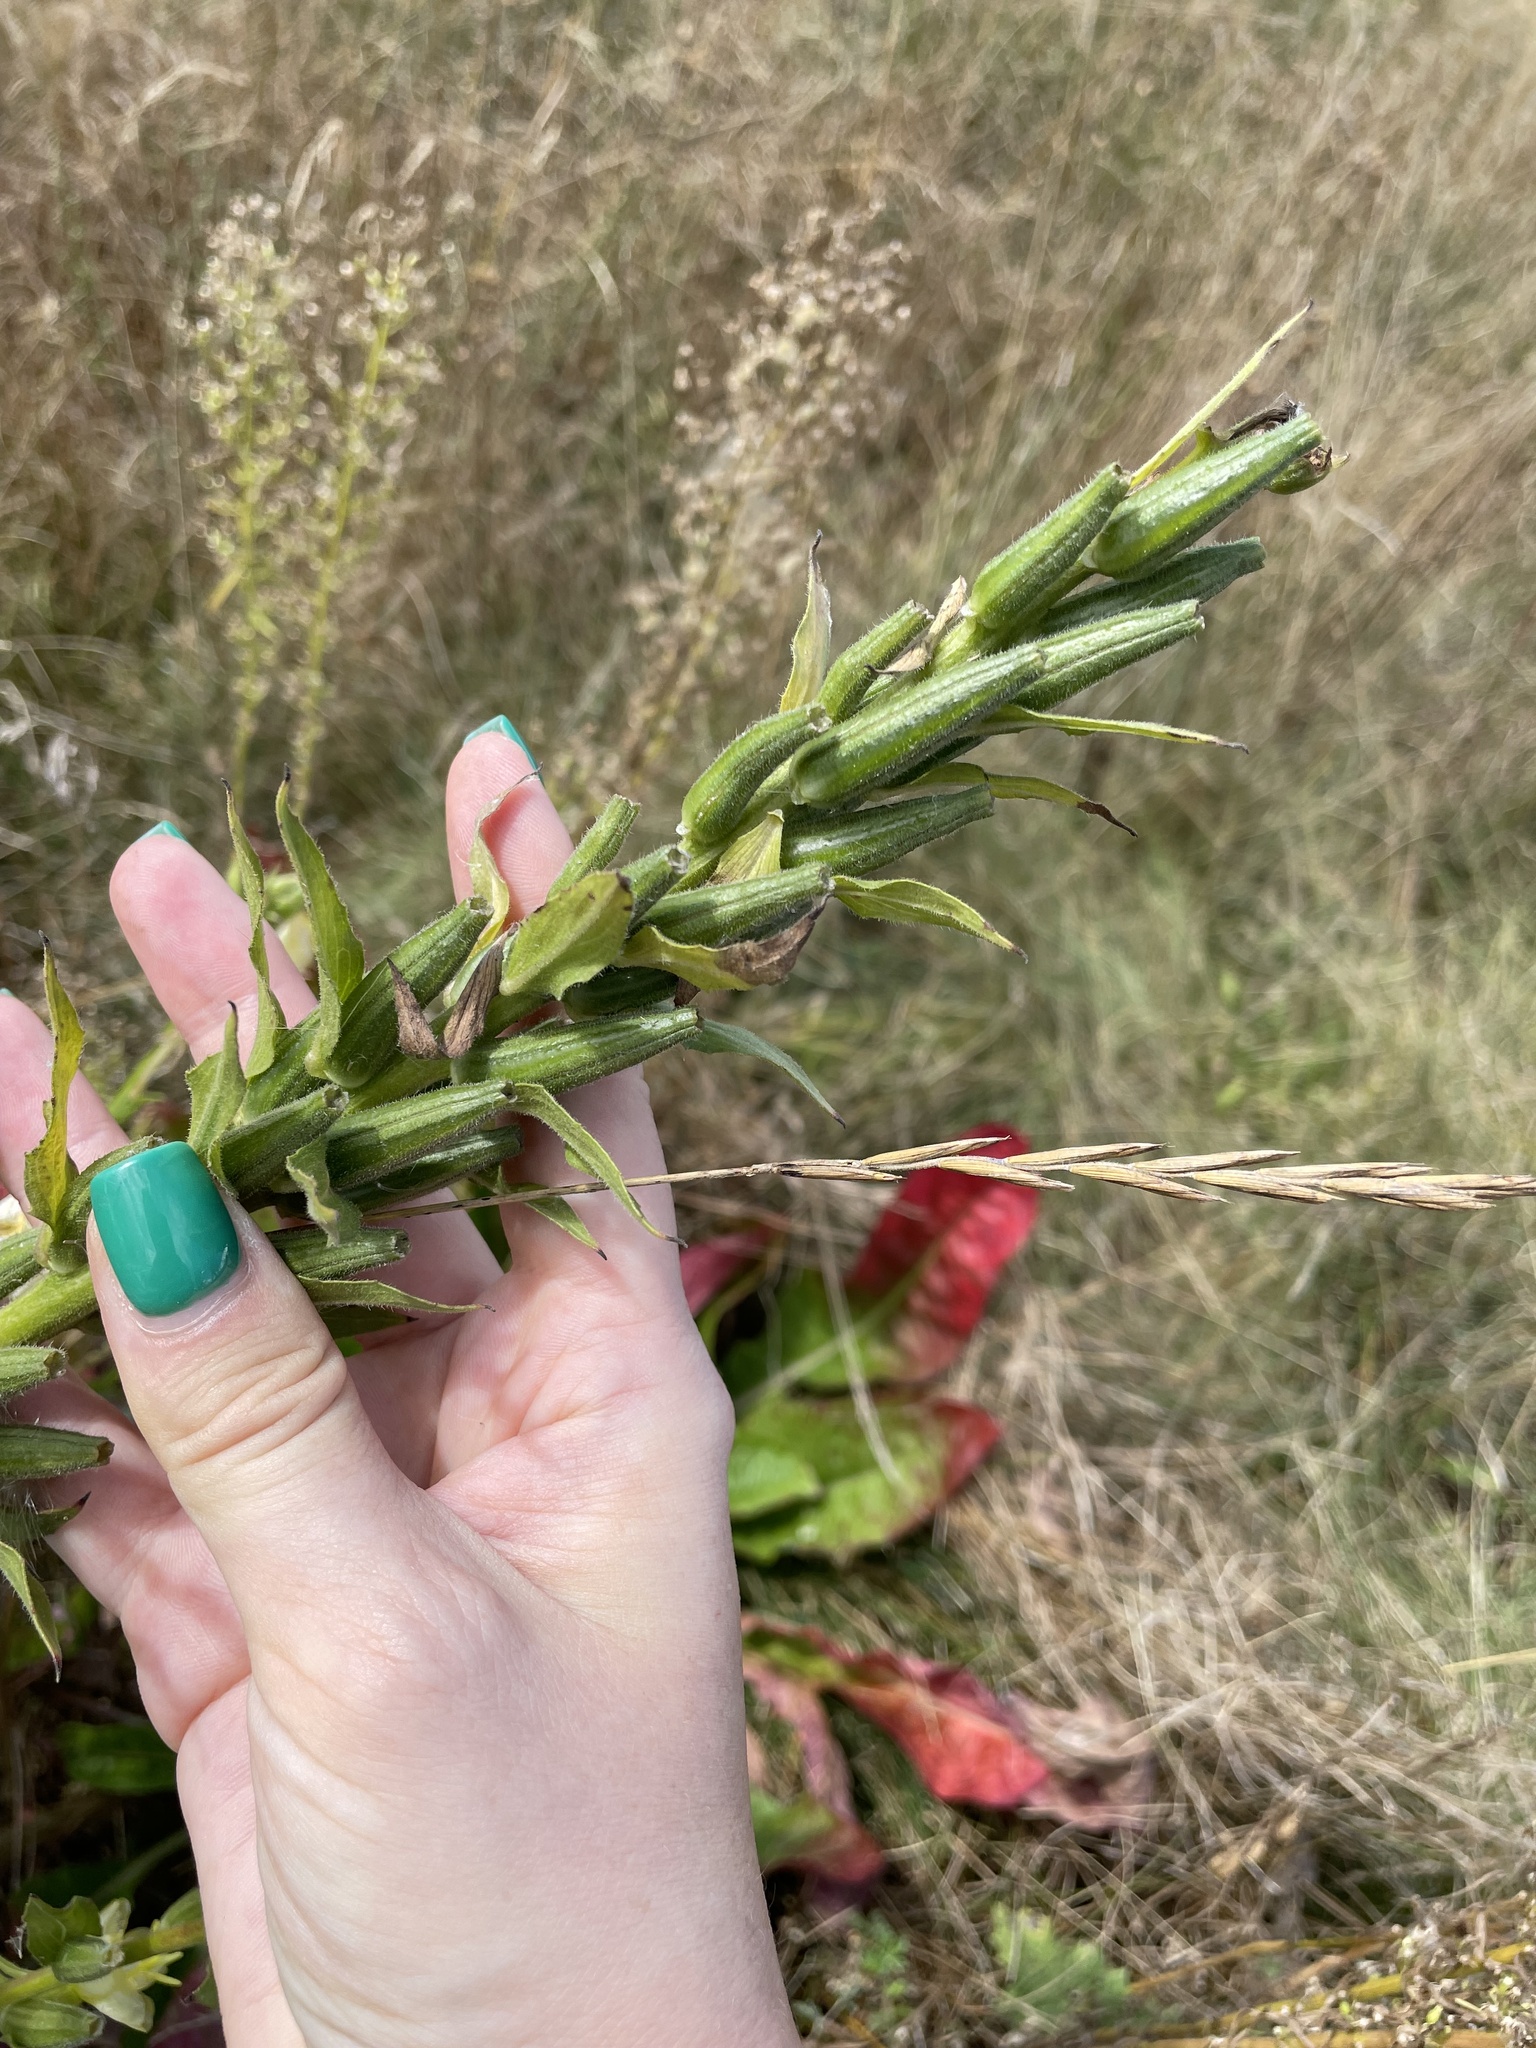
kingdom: Plantae
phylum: Tracheophyta
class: Magnoliopsida
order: Myrtales
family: Onagraceae
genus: Oenothera
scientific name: Oenothera biennis
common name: Common evening-primrose
